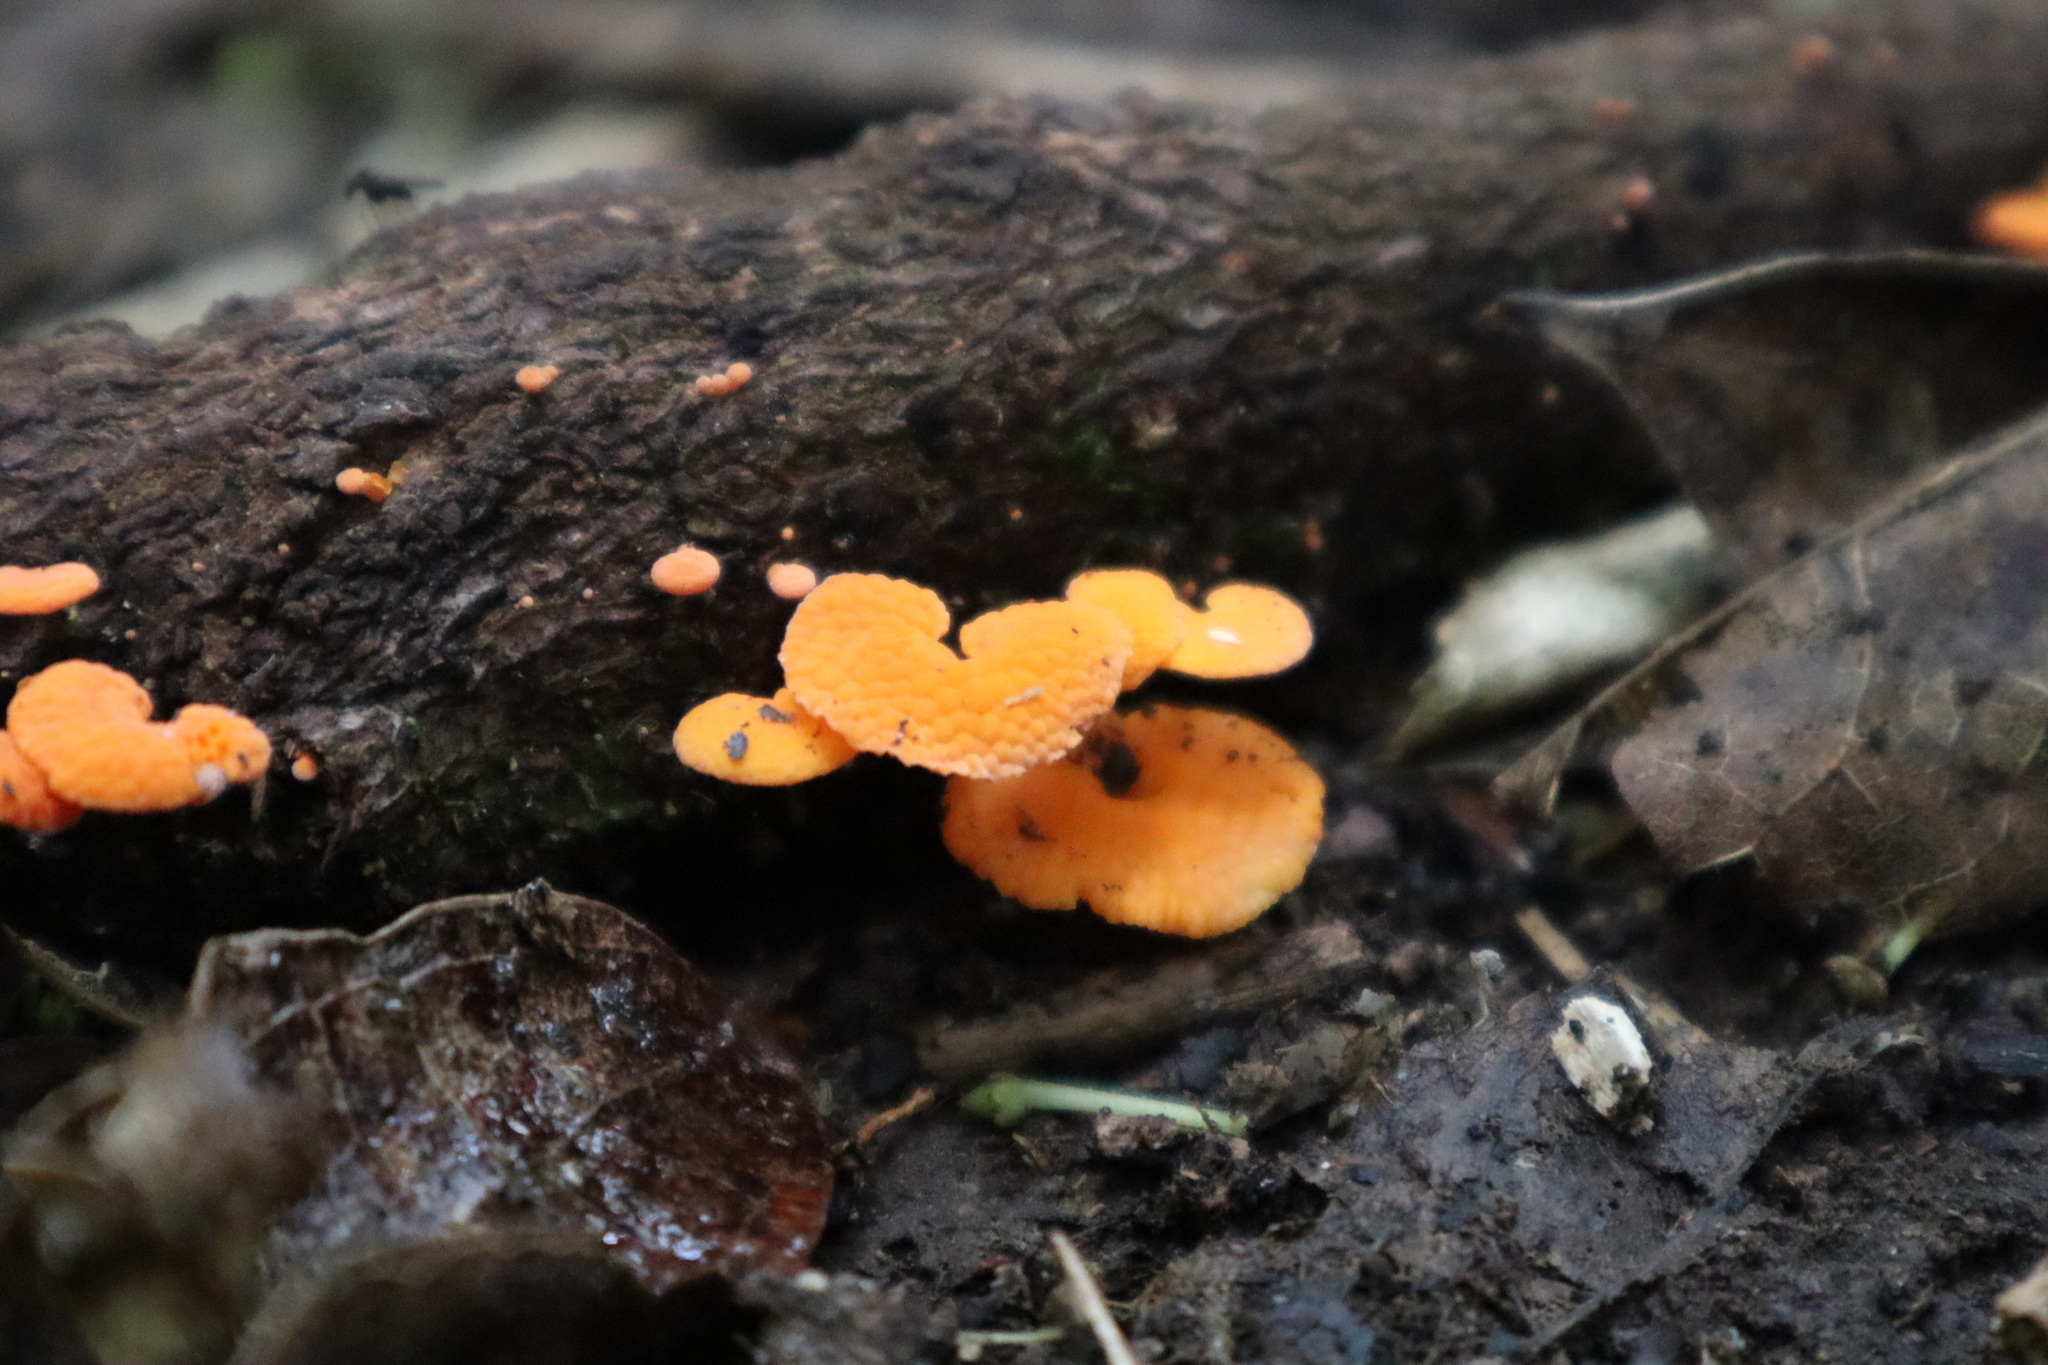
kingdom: Fungi
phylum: Basidiomycota
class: Agaricomycetes
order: Agaricales
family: Mycenaceae
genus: Favolaschia
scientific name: Favolaschia claudopus
